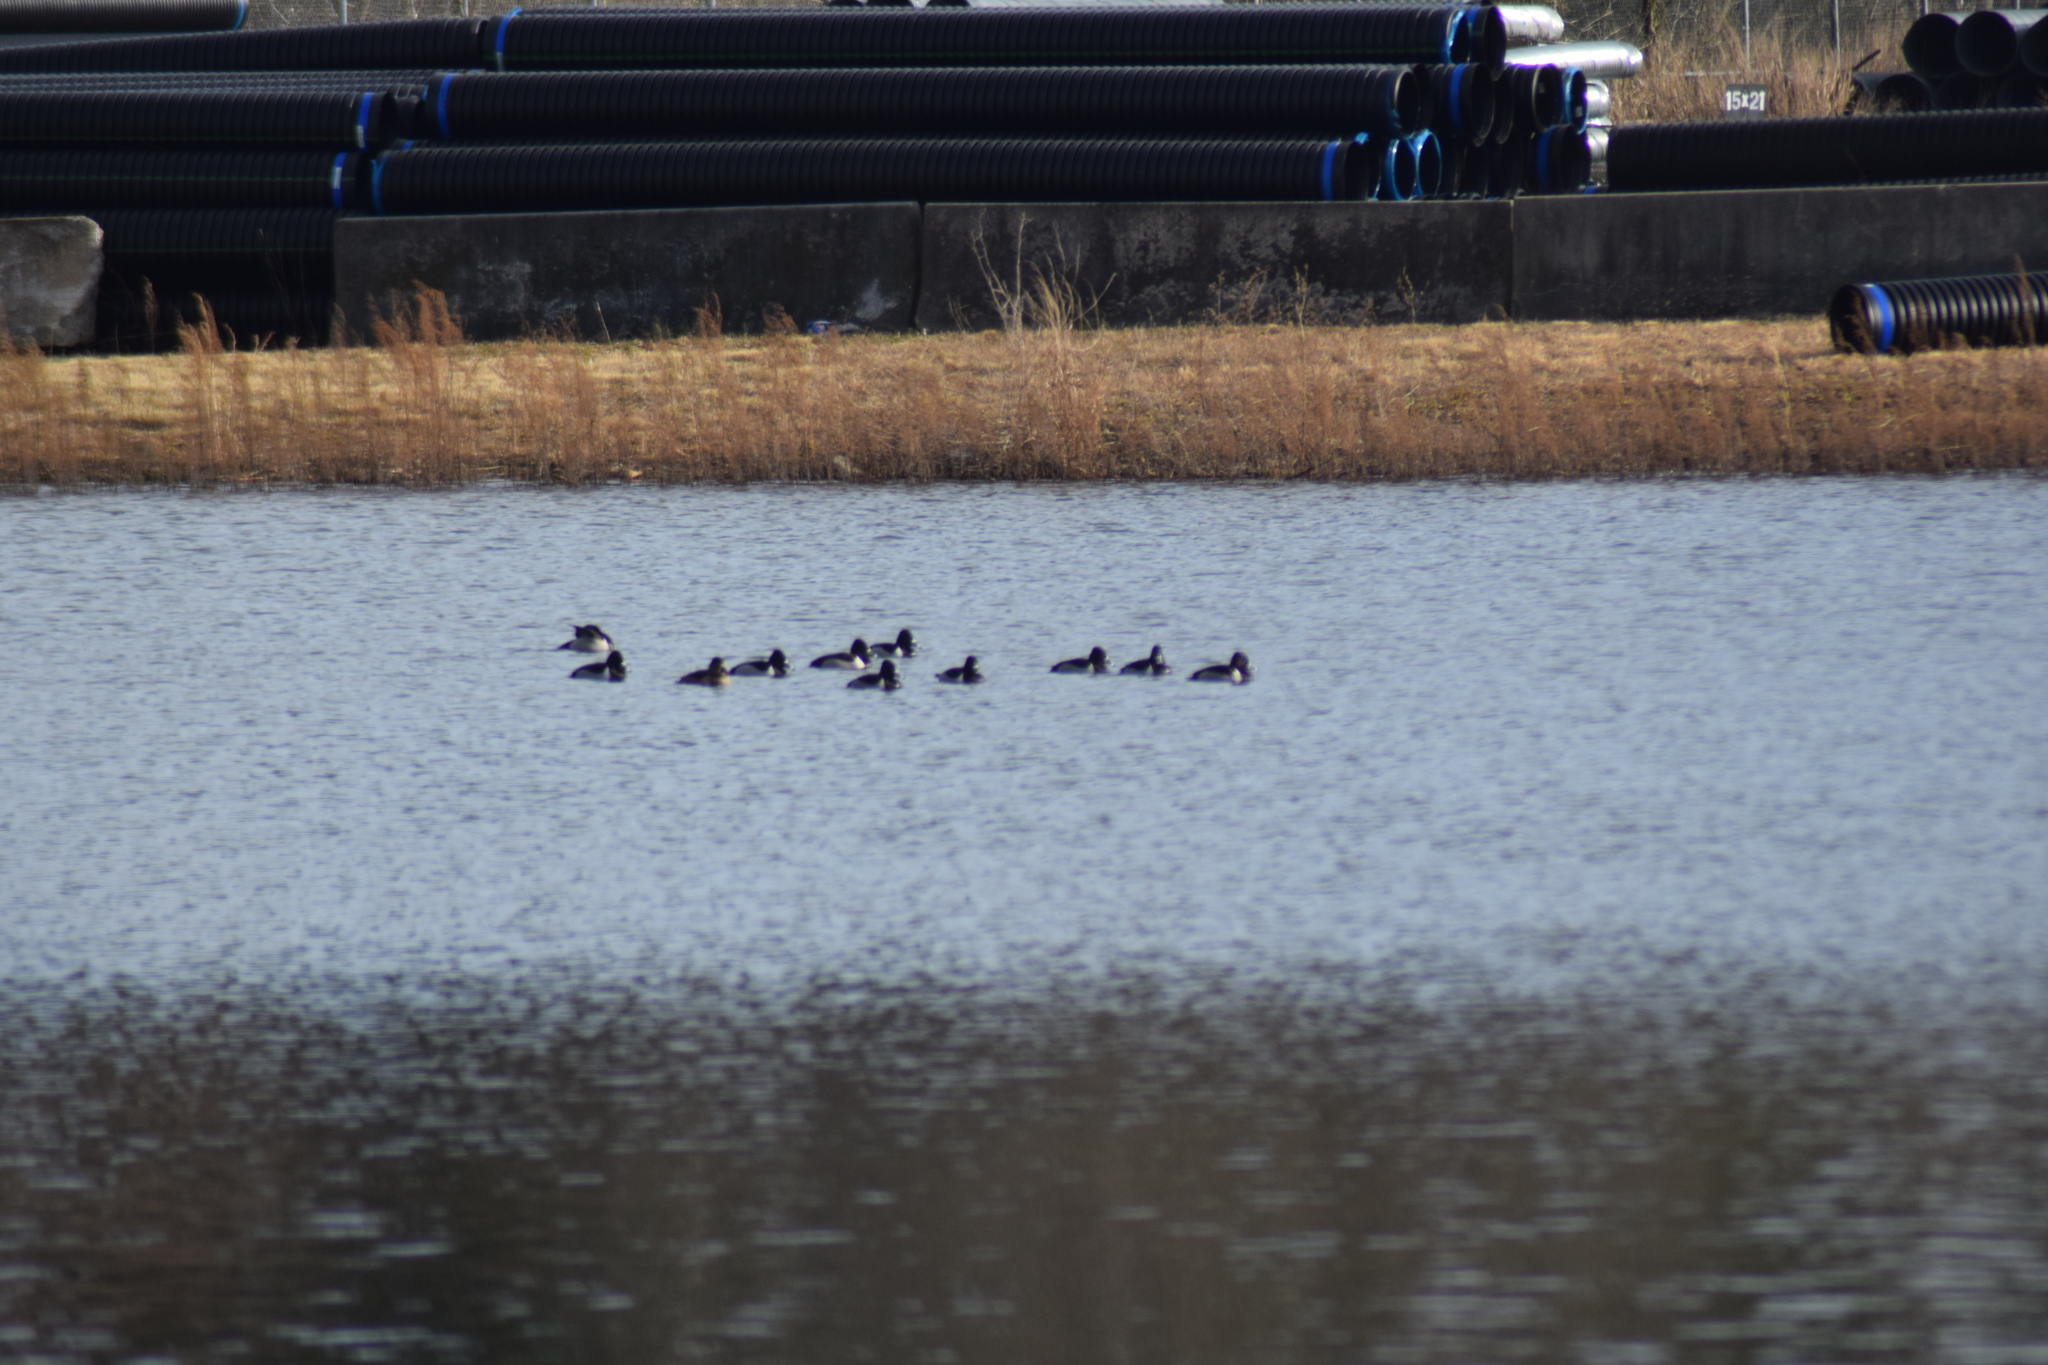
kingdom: Animalia
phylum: Chordata
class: Aves
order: Anseriformes
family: Anatidae
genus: Aythya
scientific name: Aythya collaris
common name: Ring-necked duck
